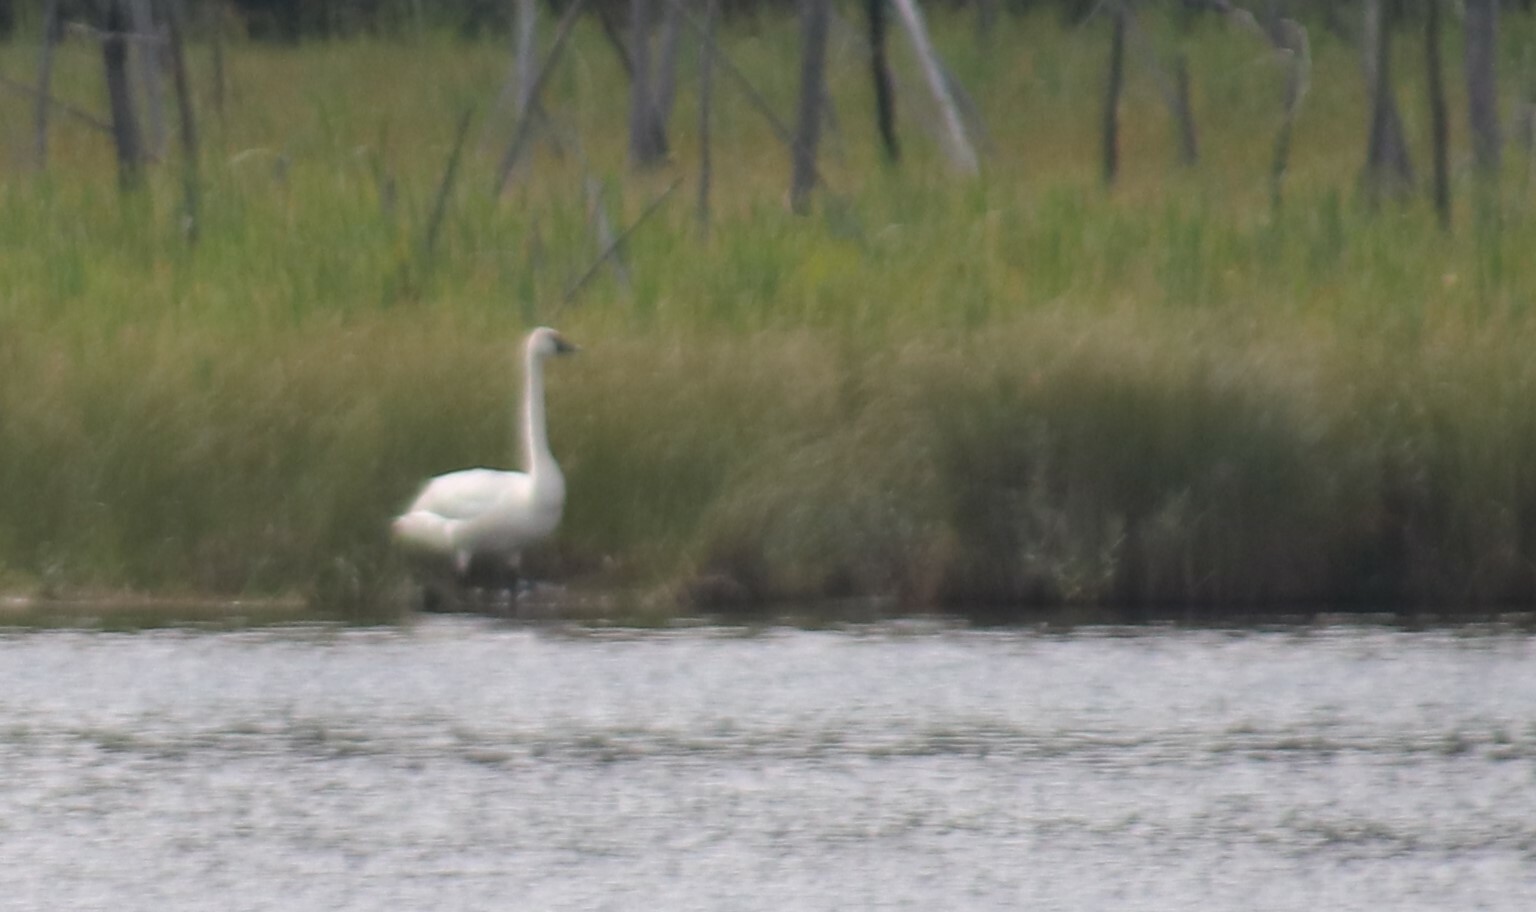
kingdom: Animalia
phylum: Chordata
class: Aves
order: Anseriformes
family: Anatidae
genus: Cygnus
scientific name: Cygnus buccinator
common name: Trumpeter swan
